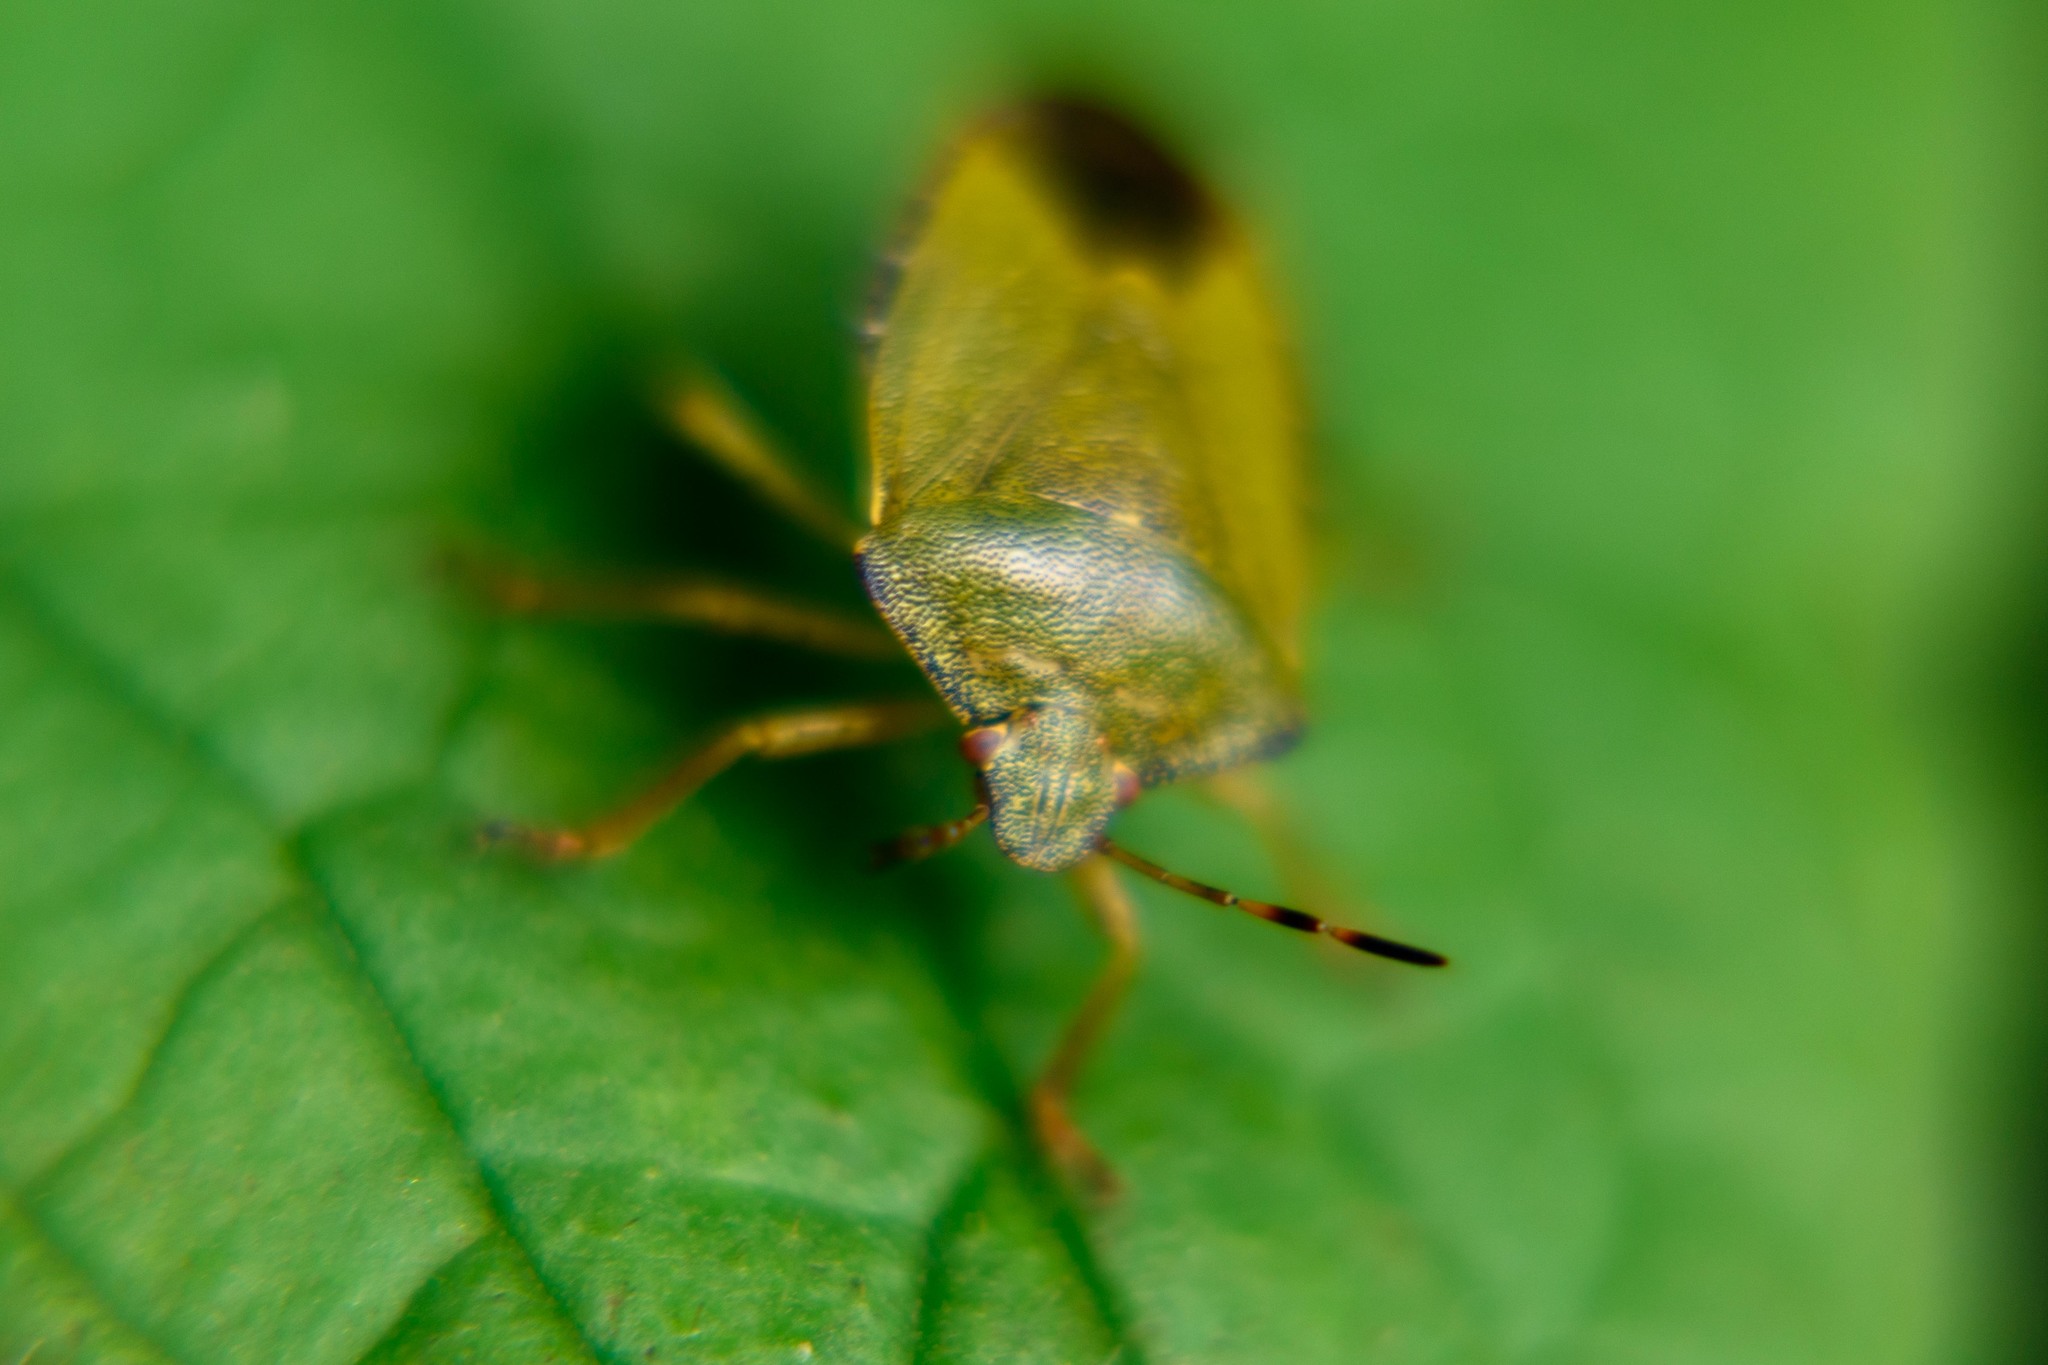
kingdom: Animalia
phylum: Arthropoda
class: Insecta
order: Hemiptera
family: Pentatomidae
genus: Palomena
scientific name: Palomena prasina
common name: Green shieldbug
